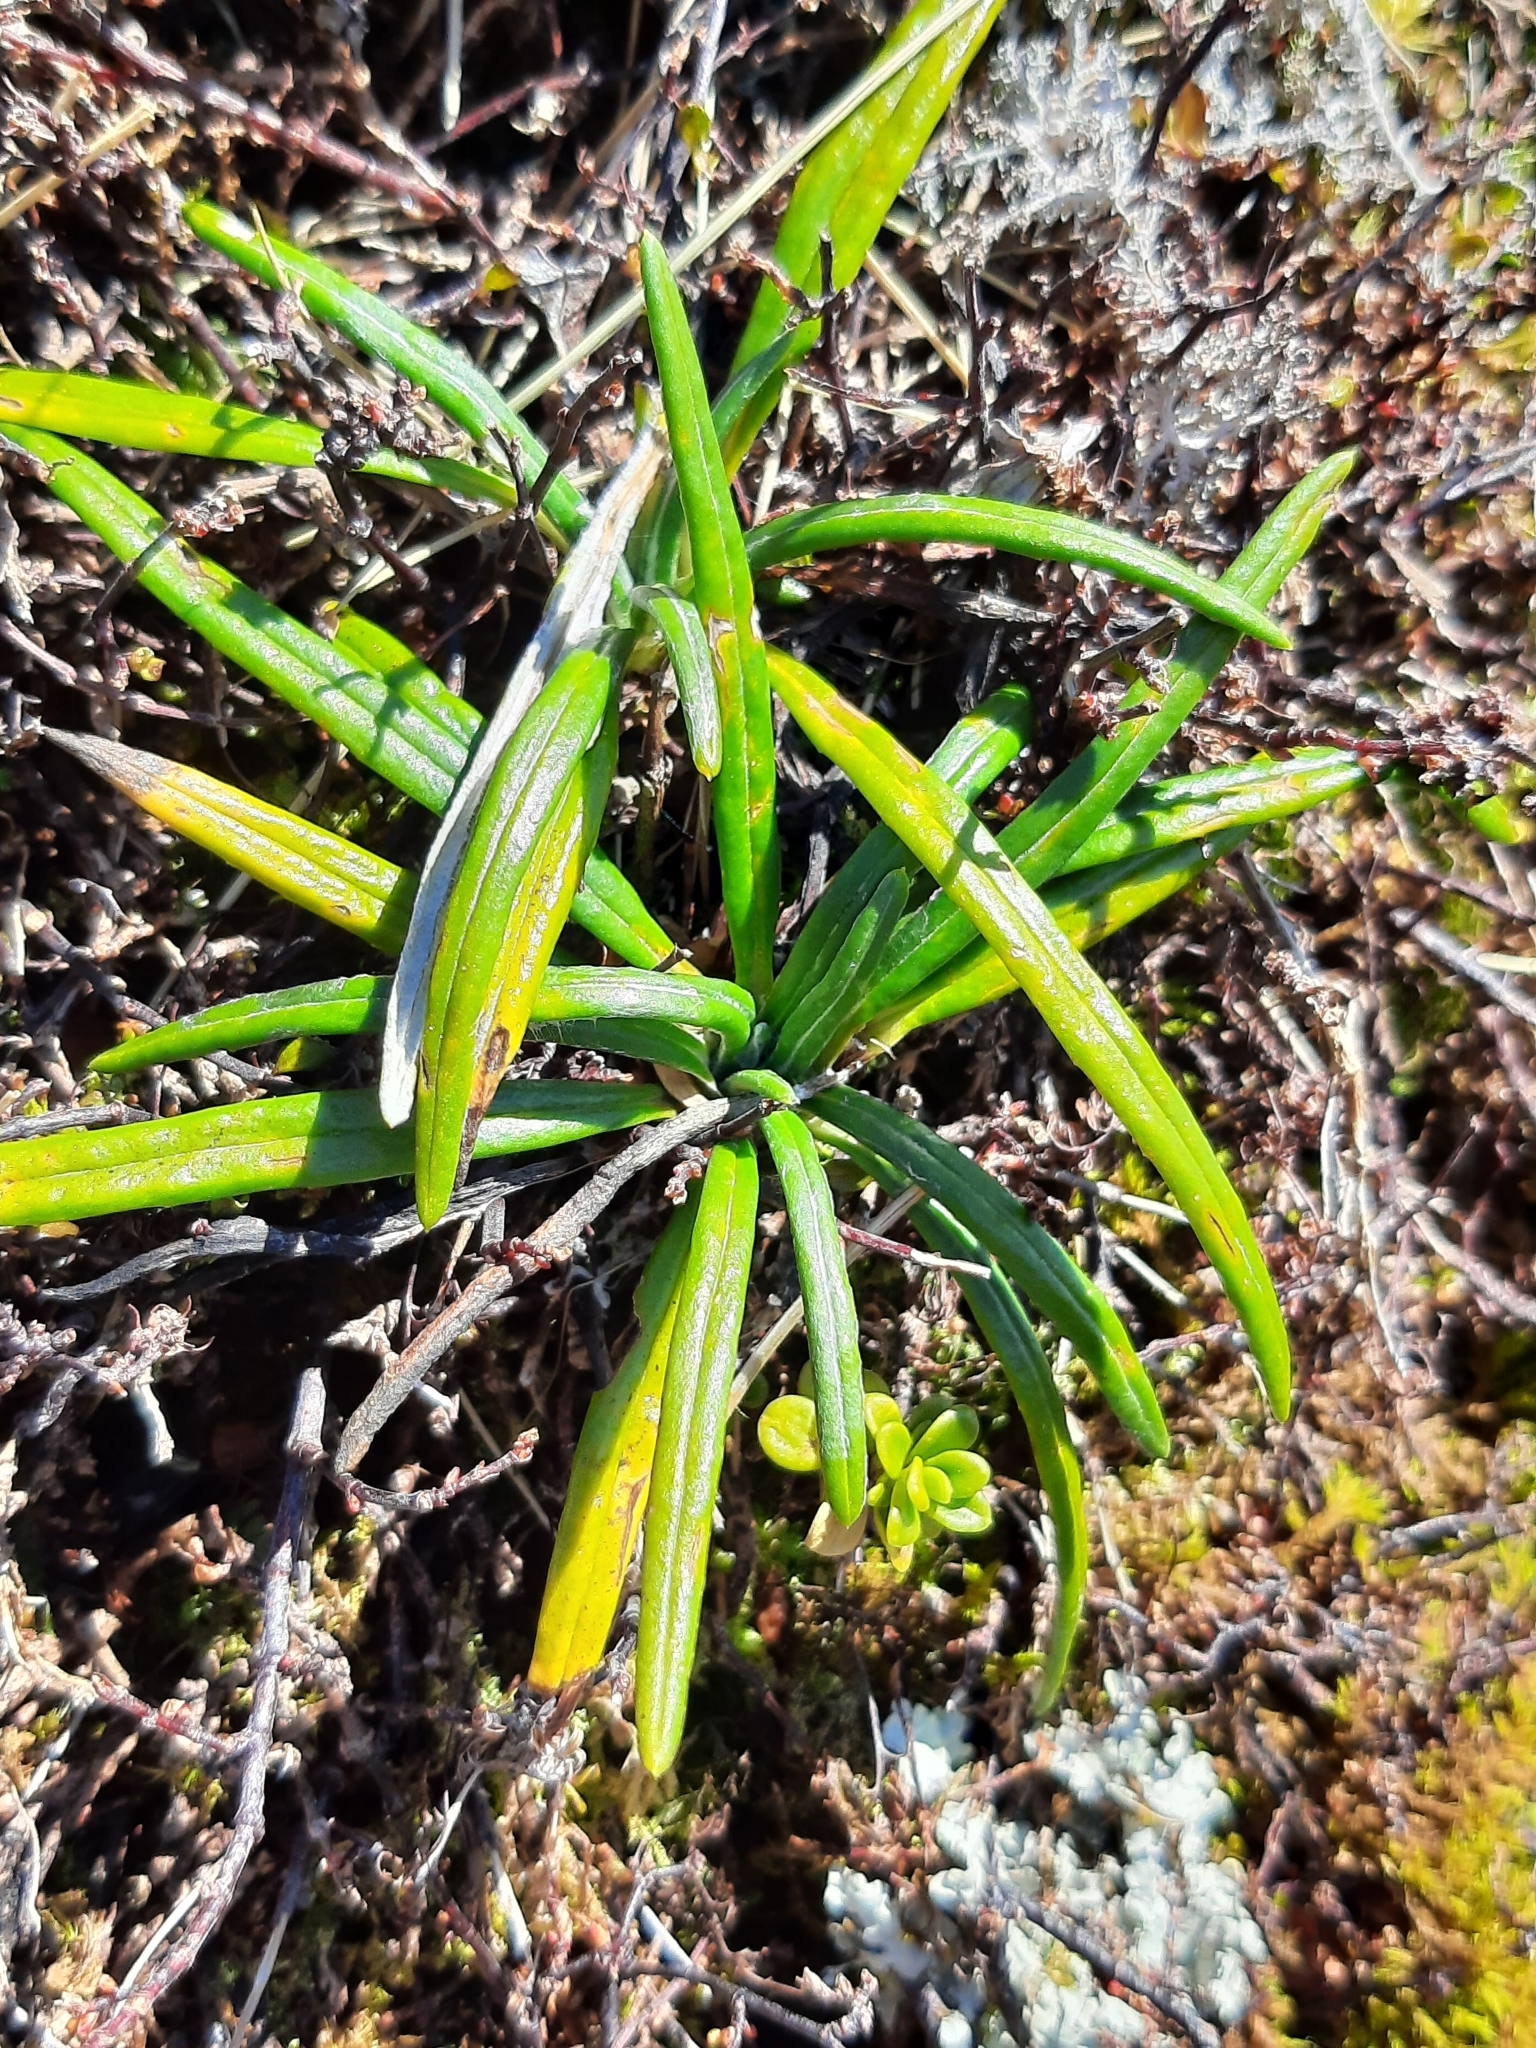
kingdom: Plantae
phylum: Tracheophyta
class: Magnoliopsida
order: Asterales
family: Asteraceae
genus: Celmisia
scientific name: Celmisia major
